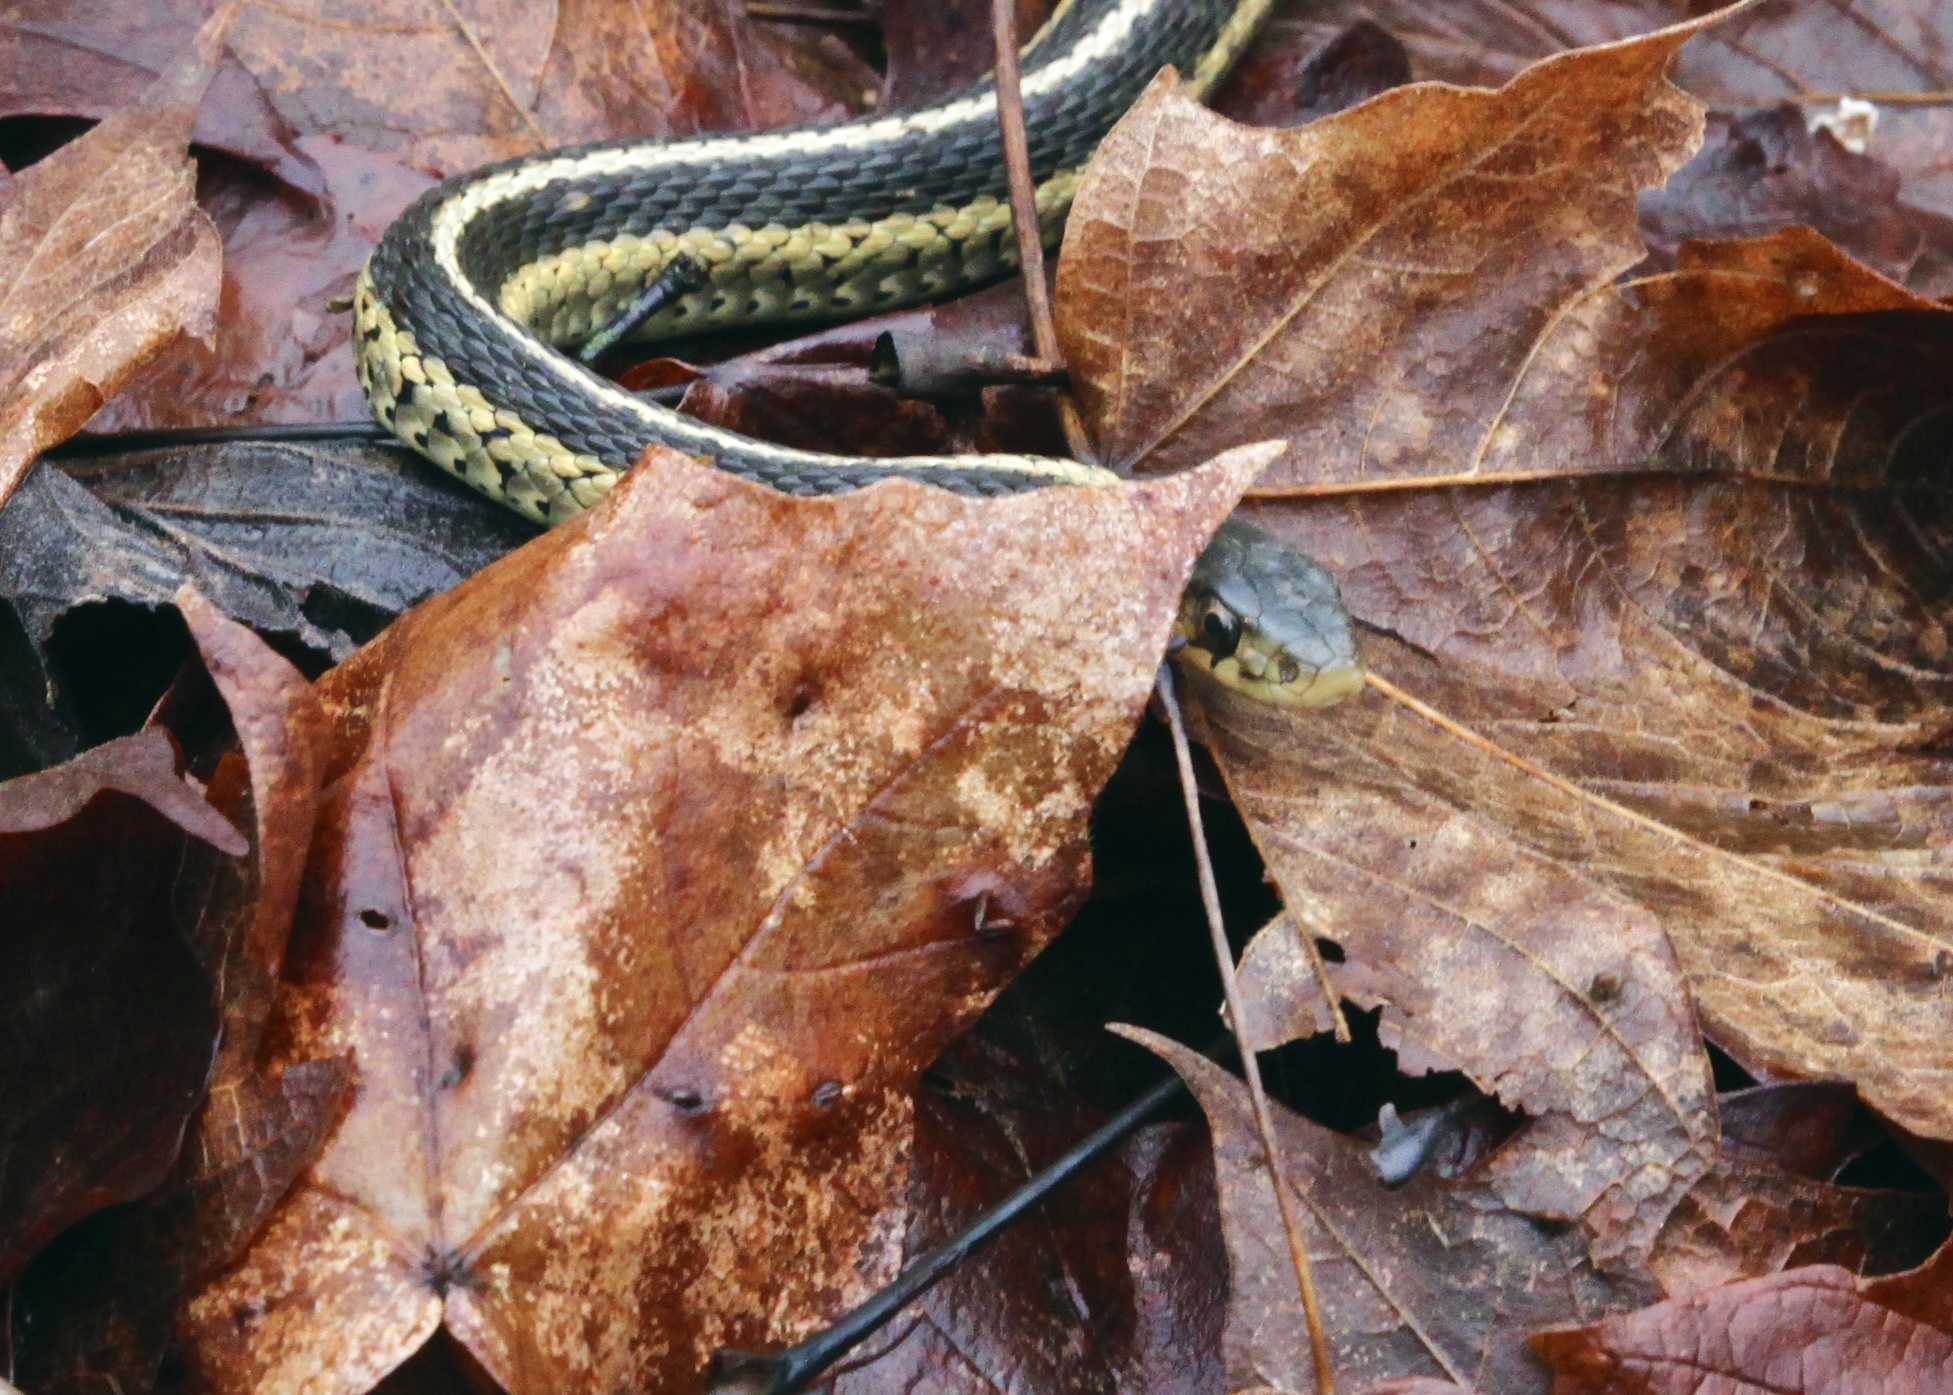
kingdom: Animalia
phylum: Chordata
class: Squamata
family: Colubridae
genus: Thamnophis
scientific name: Thamnophis sirtalis
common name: Common garter snake
